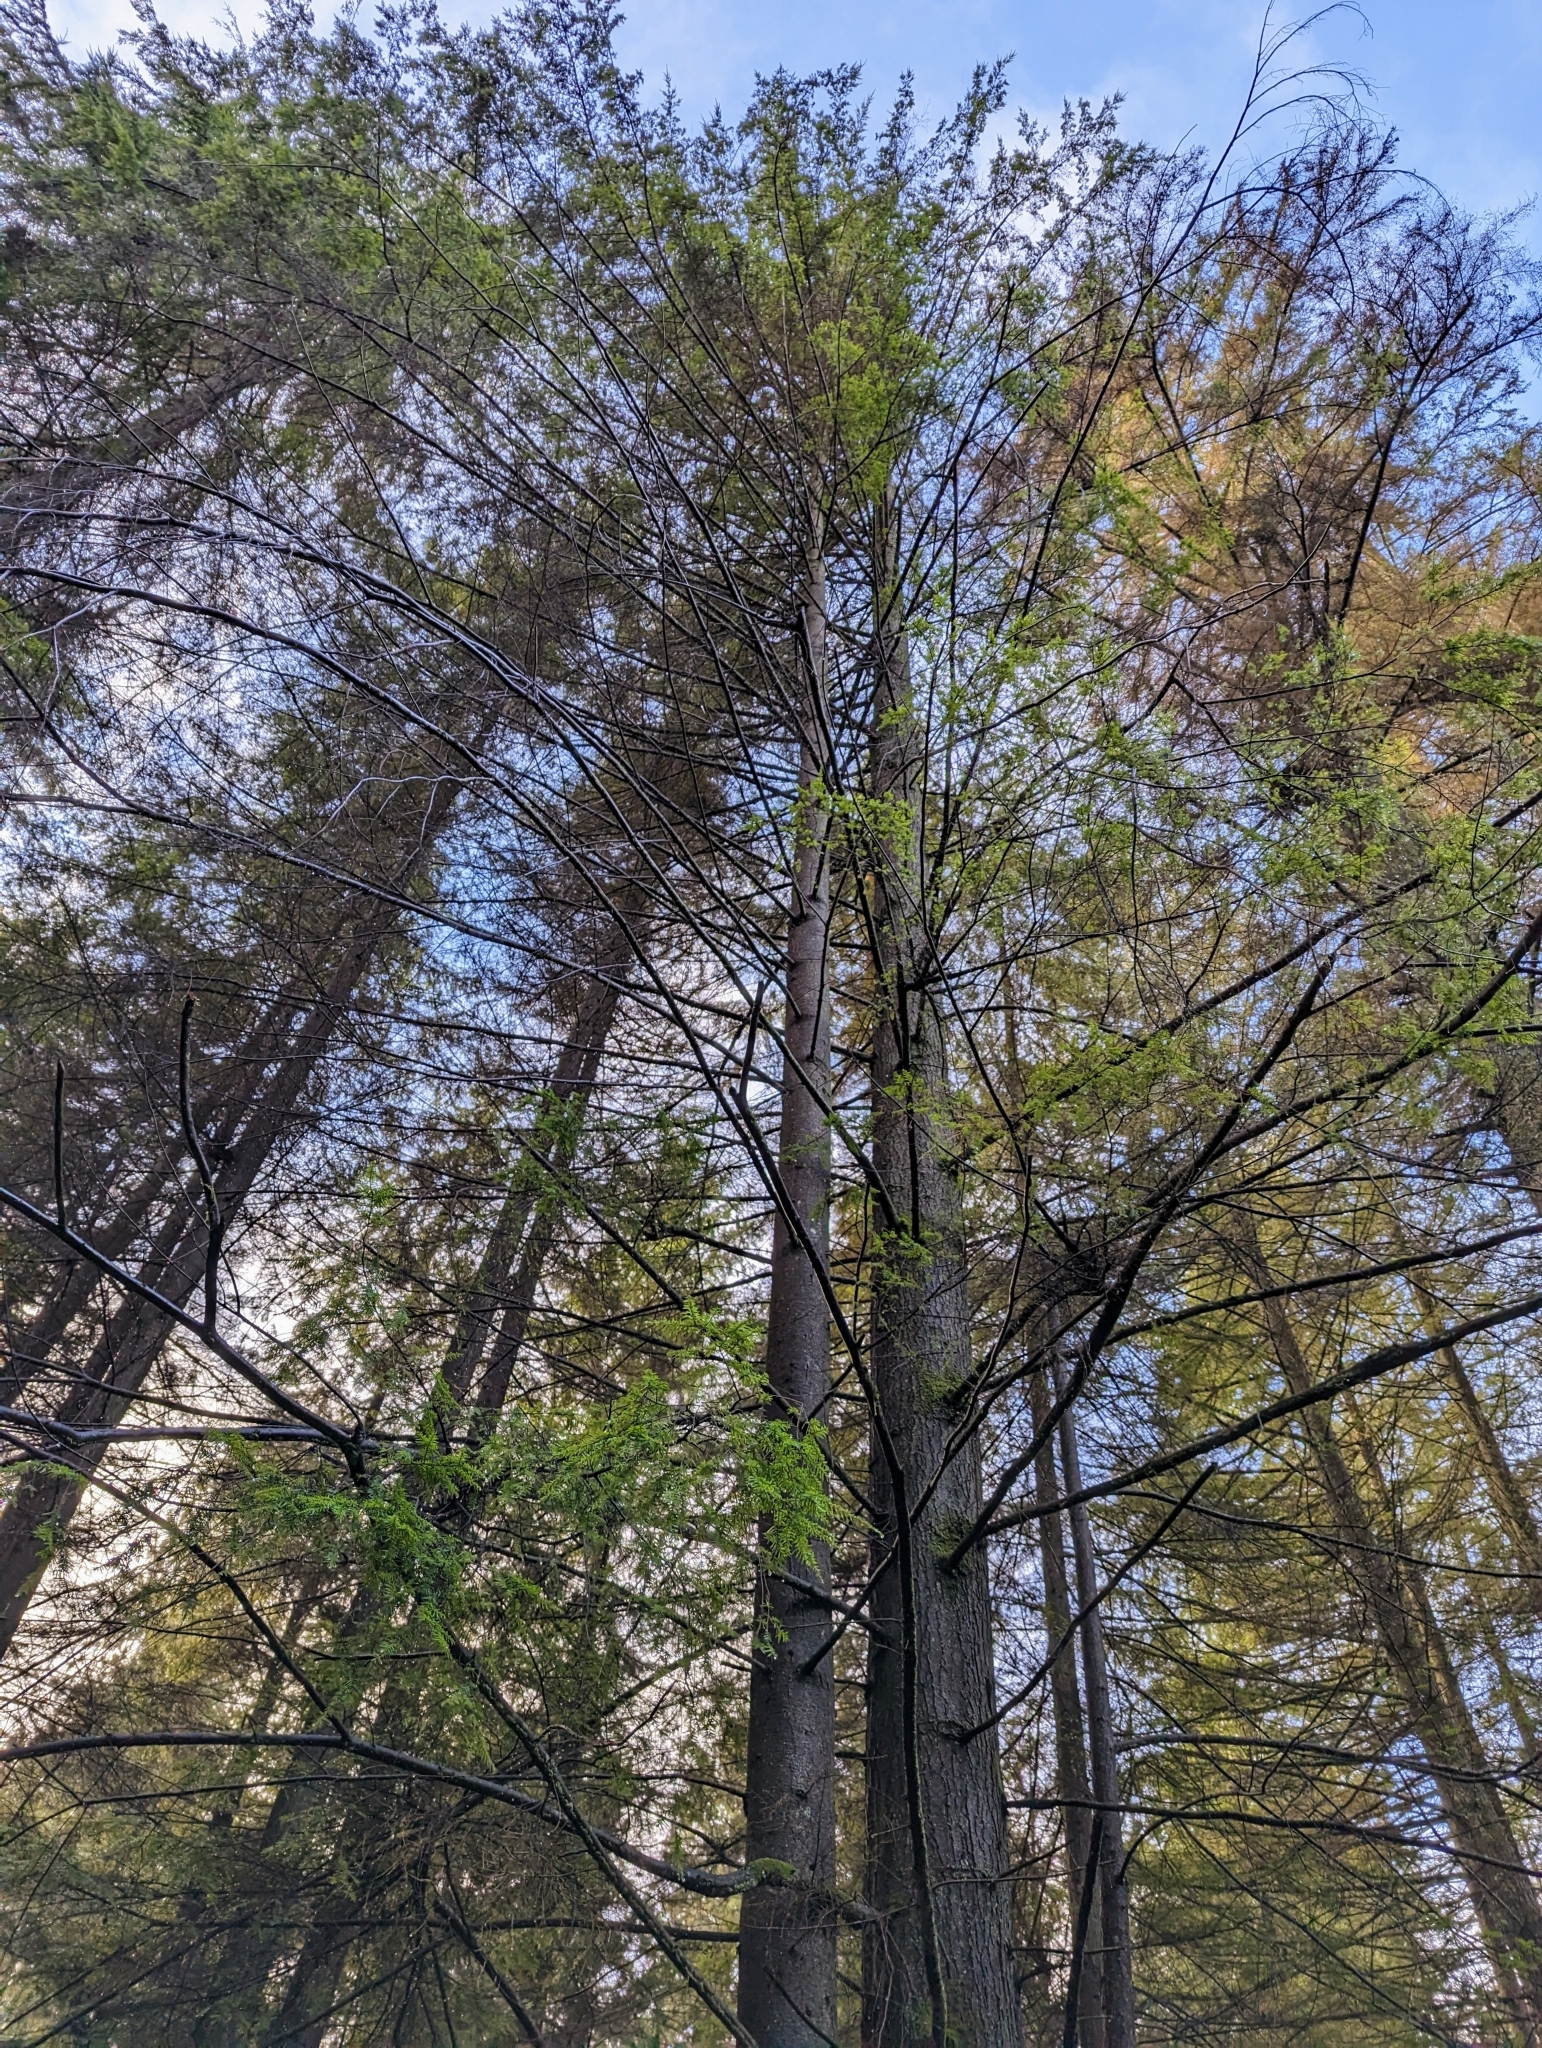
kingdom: Plantae
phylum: Tracheophyta
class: Pinopsida
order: Pinales
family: Pinaceae
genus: Tsuga
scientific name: Tsuga heterophylla
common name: Western hemlock
